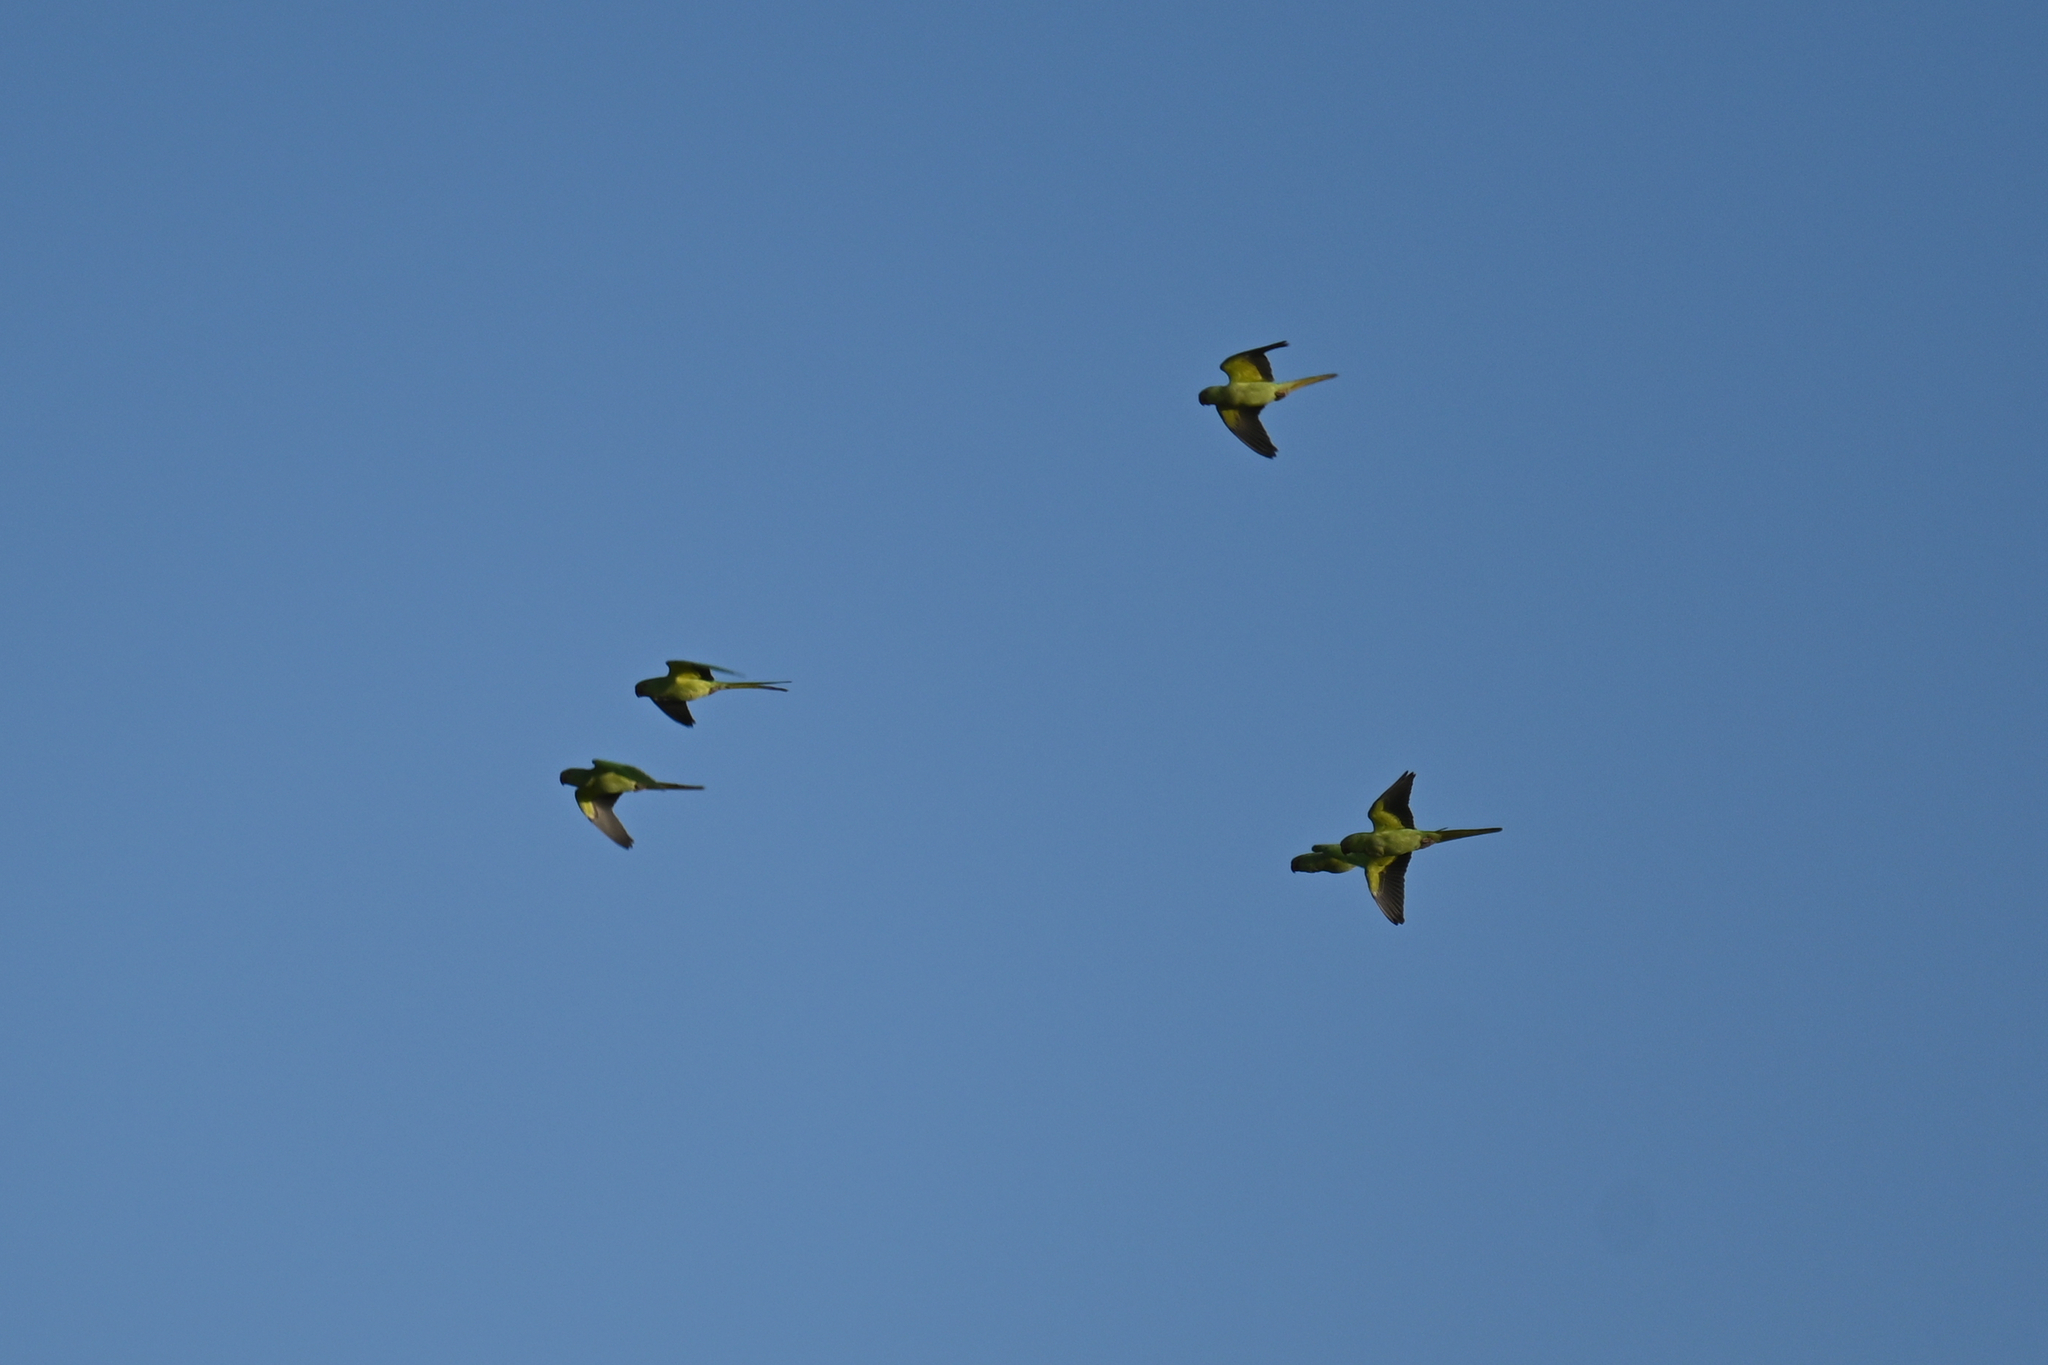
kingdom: Animalia
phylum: Chordata
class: Aves
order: Psittaciformes
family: Psittacidae
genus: Psittacula
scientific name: Psittacula krameri
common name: Rose-ringed parakeet
